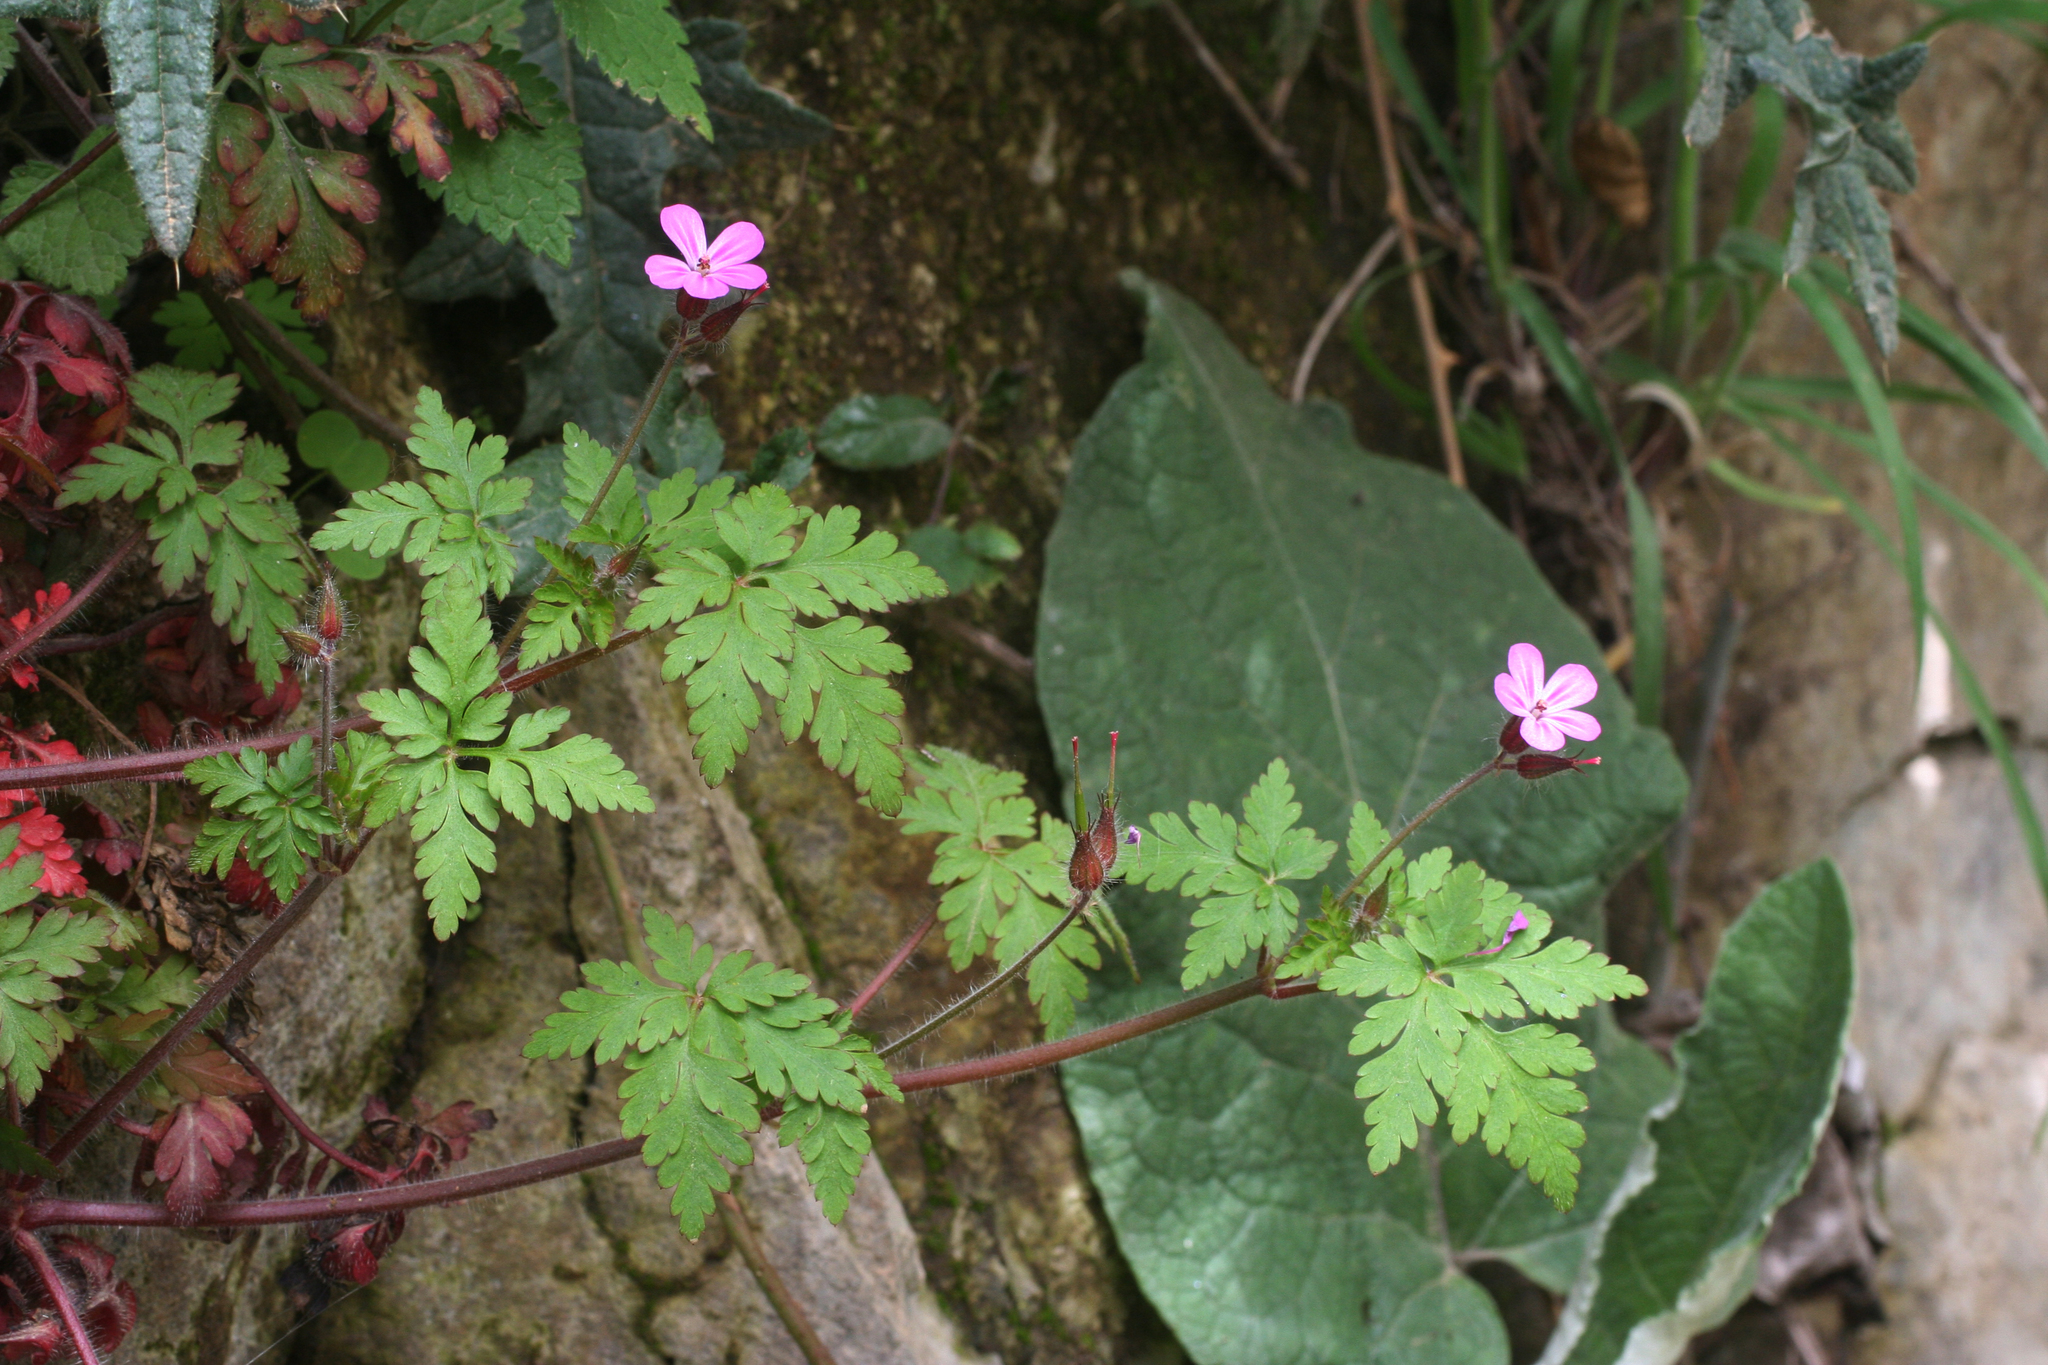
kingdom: Plantae
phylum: Tracheophyta
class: Magnoliopsida
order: Geraniales
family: Geraniaceae
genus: Geranium
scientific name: Geranium robertianum
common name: Herb-robert
